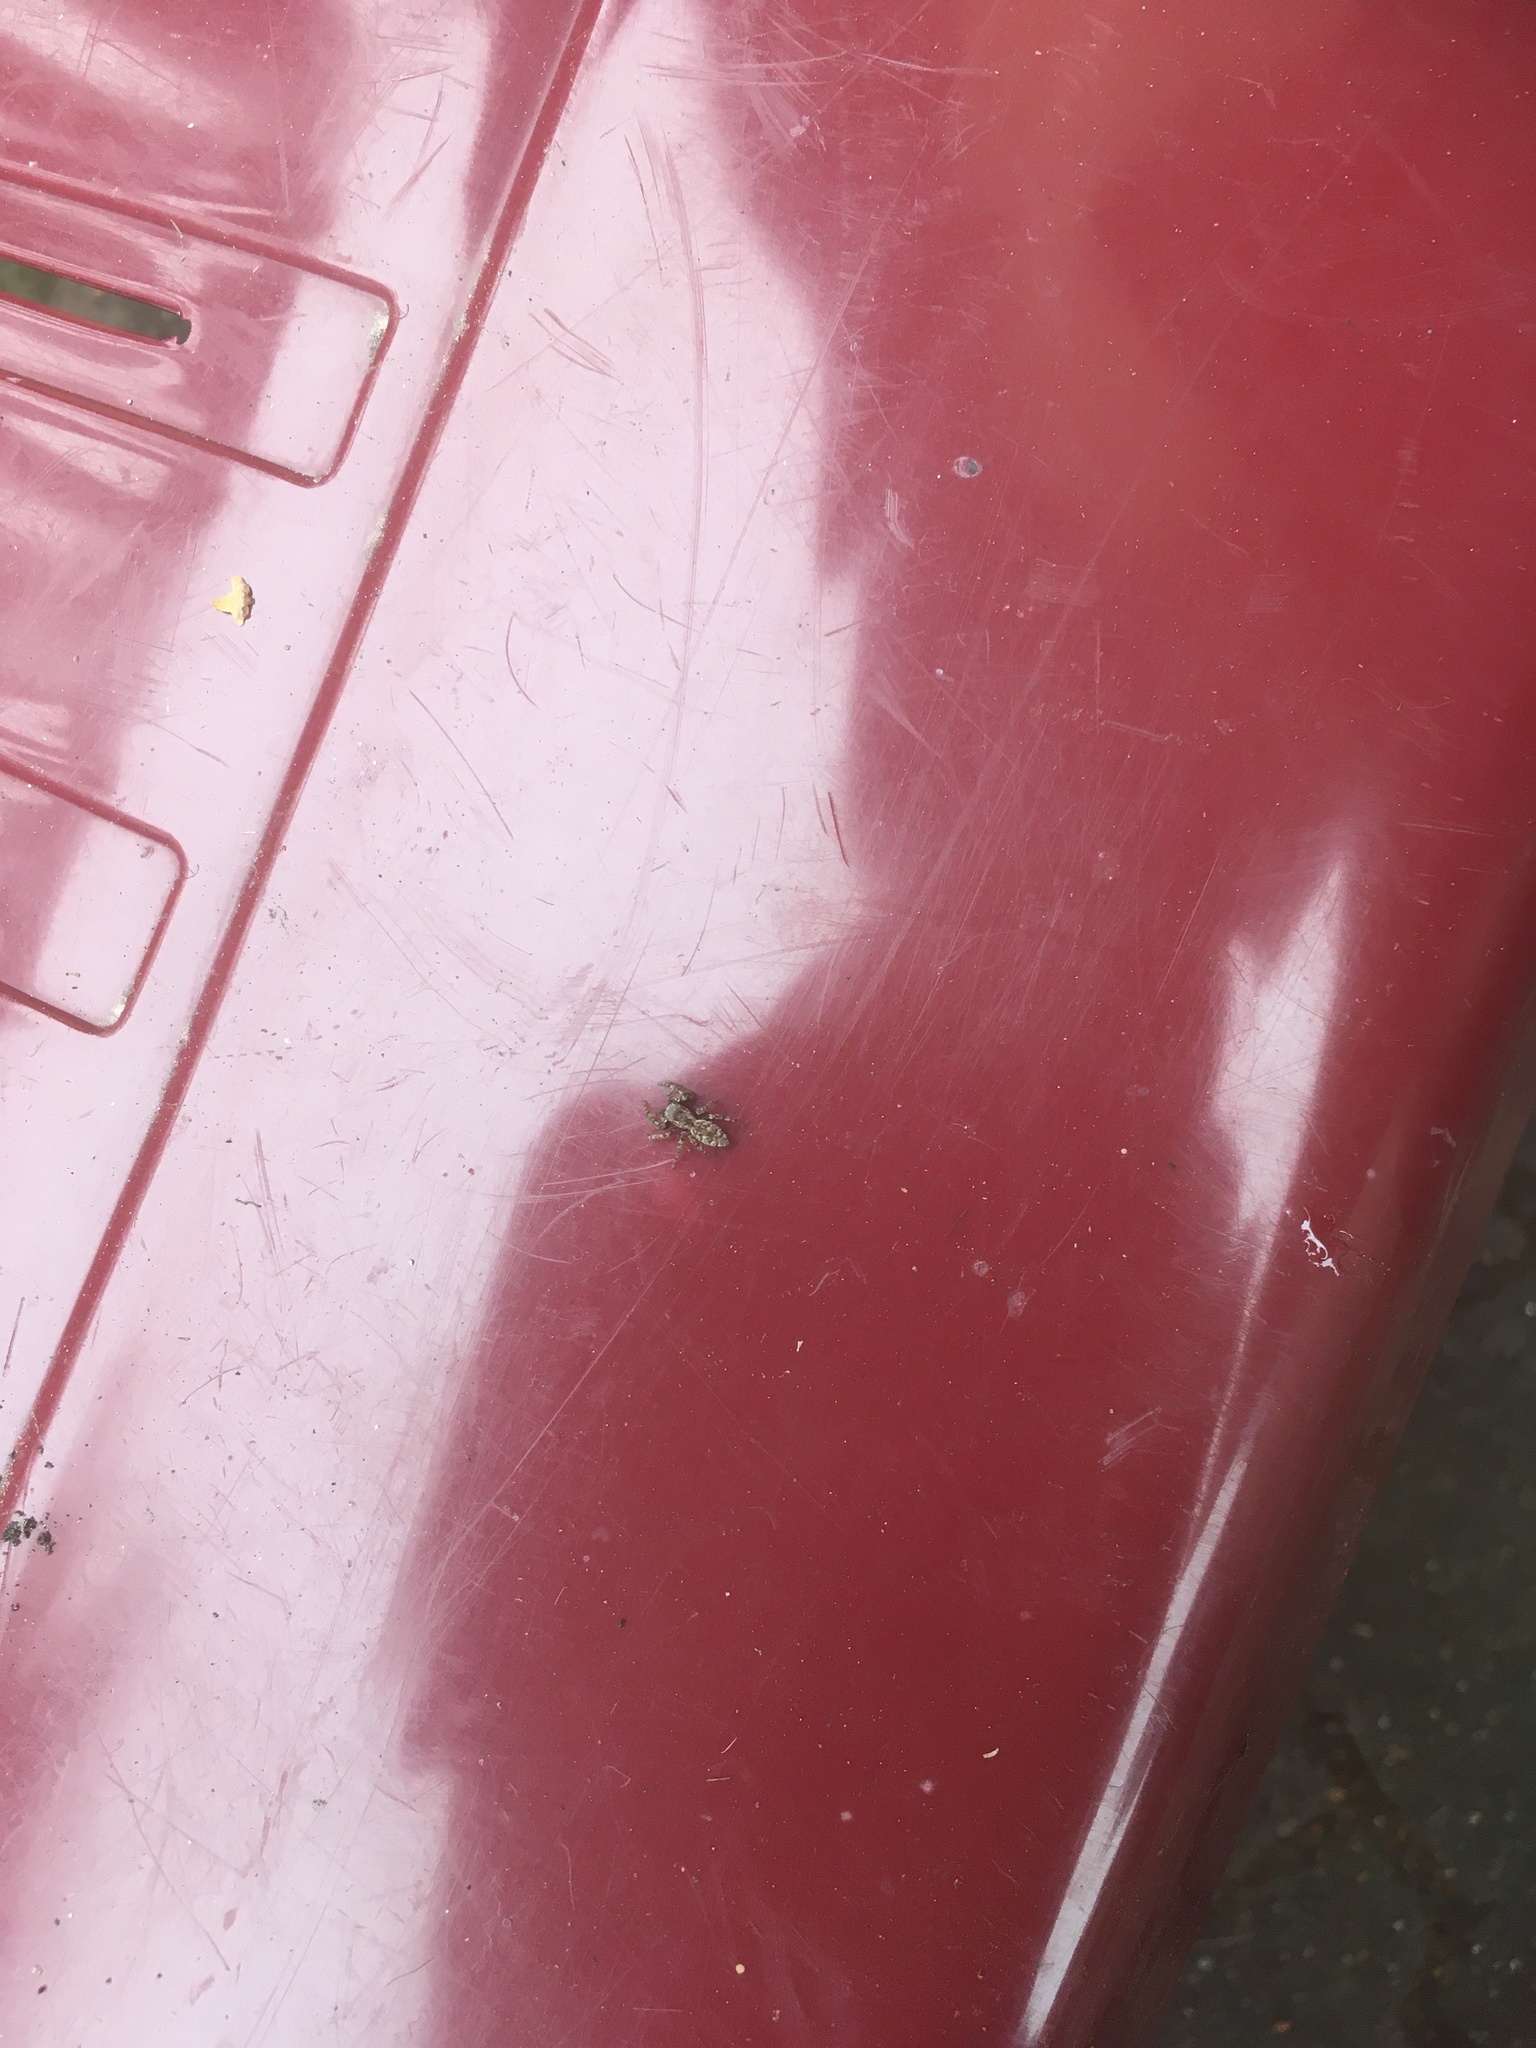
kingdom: Animalia
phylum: Arthropoda
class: Arachnida
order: Araneae
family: Salticidae
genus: Marpissa
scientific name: Marpissa muscosa
